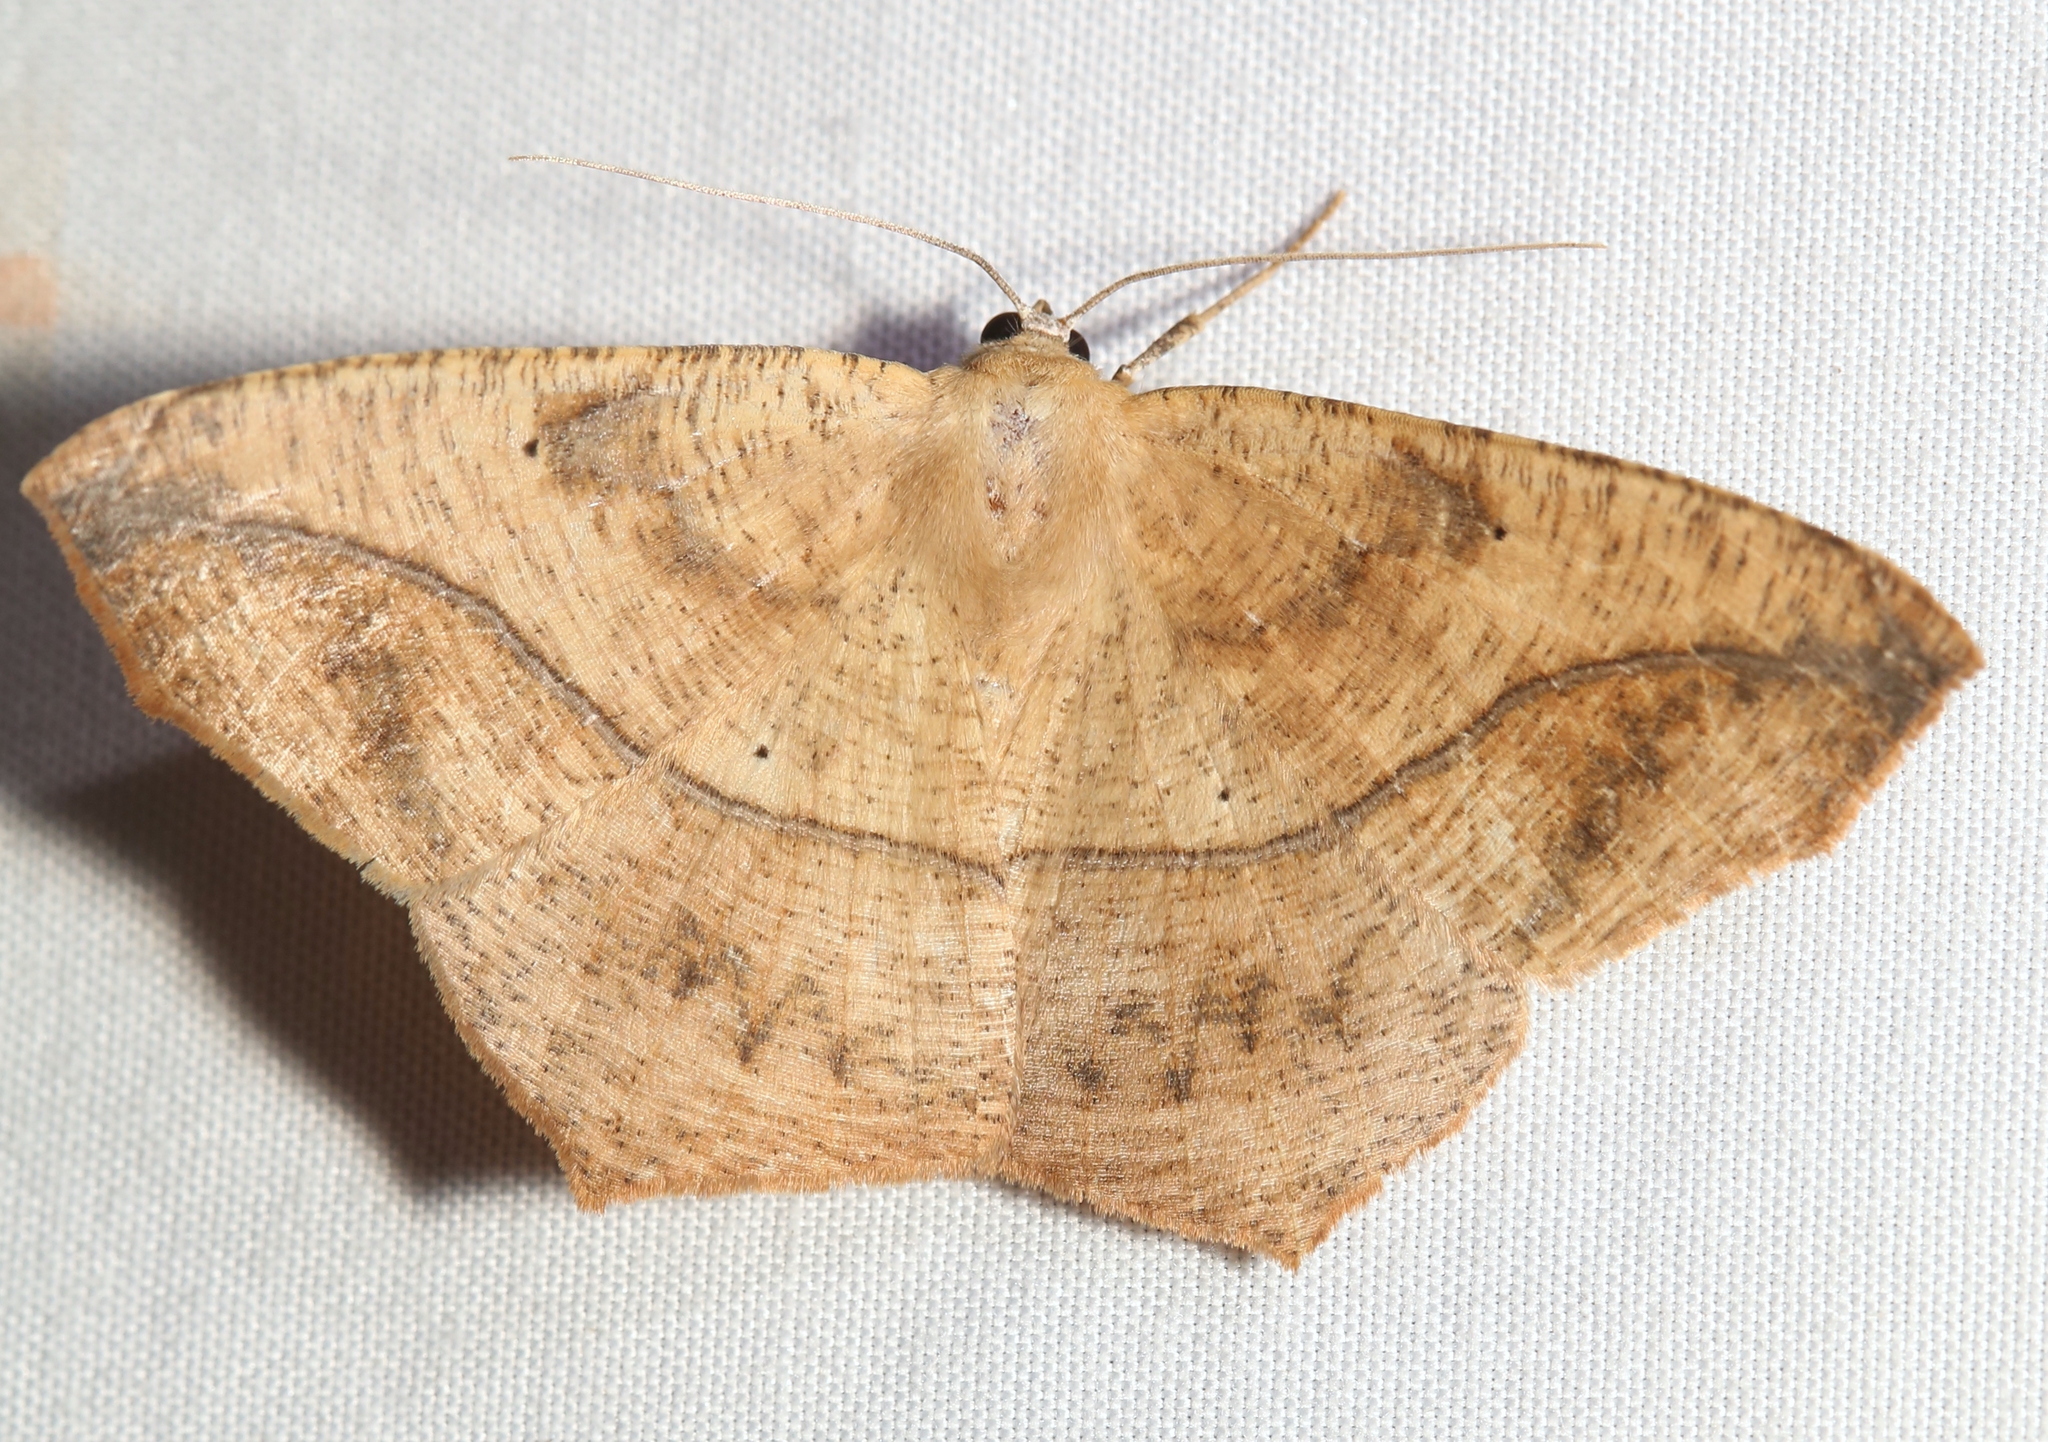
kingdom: Animalia
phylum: Arthropoda
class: Insecta
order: Lepidoptera
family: Geometridae
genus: Prochoerodes
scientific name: Prochoerodes lineola
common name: Large maple spanworm
